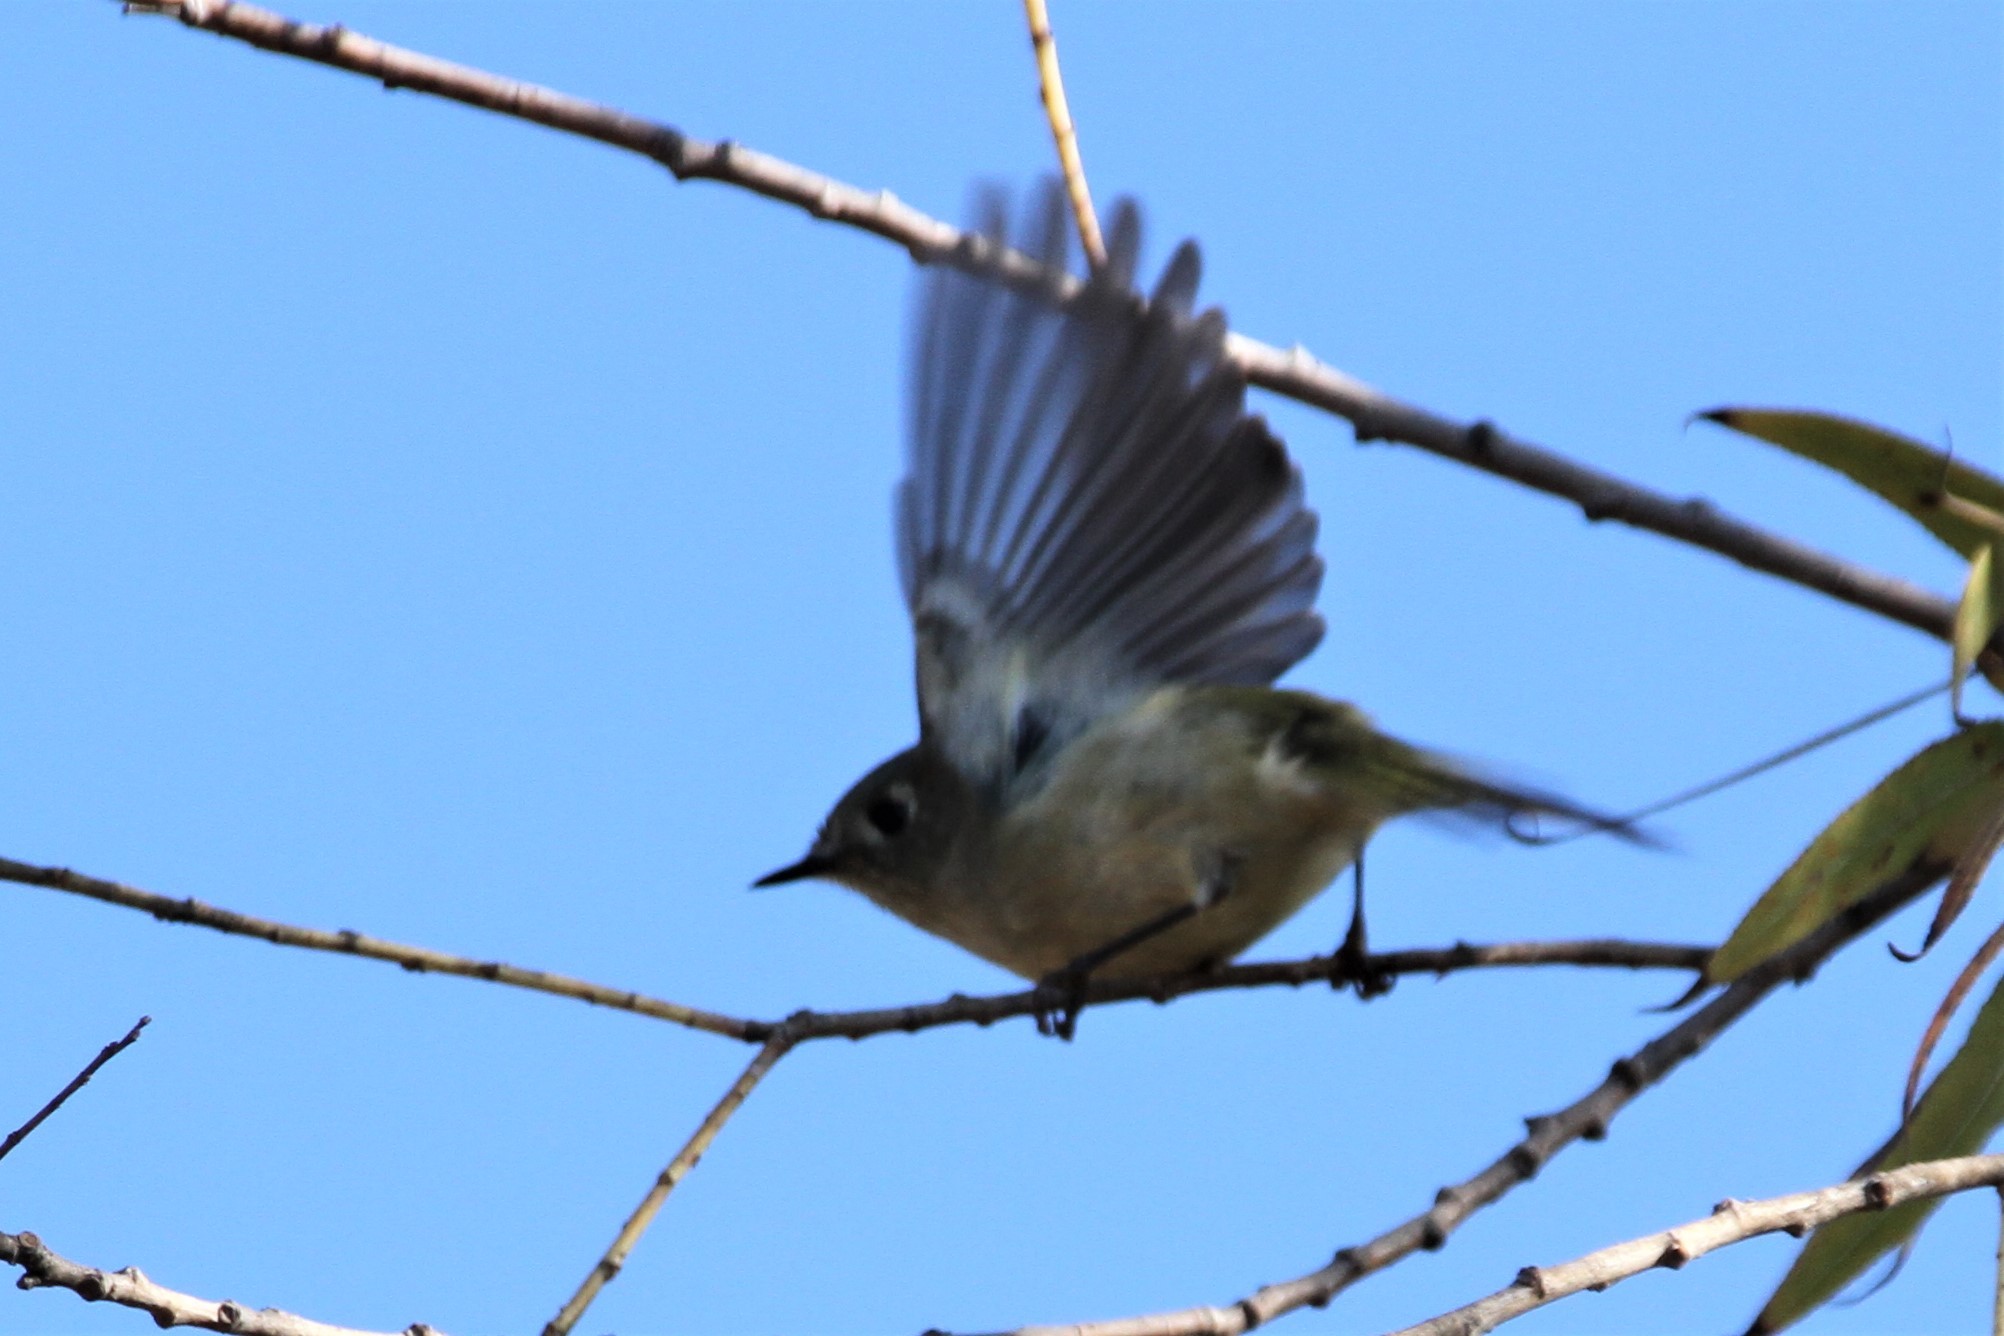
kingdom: Animalia
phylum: Chordata
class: Aves
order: Passeriformes
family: Regulidae
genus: Regulus
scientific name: Regulus calendula
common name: Ruby-crowned kinglet
